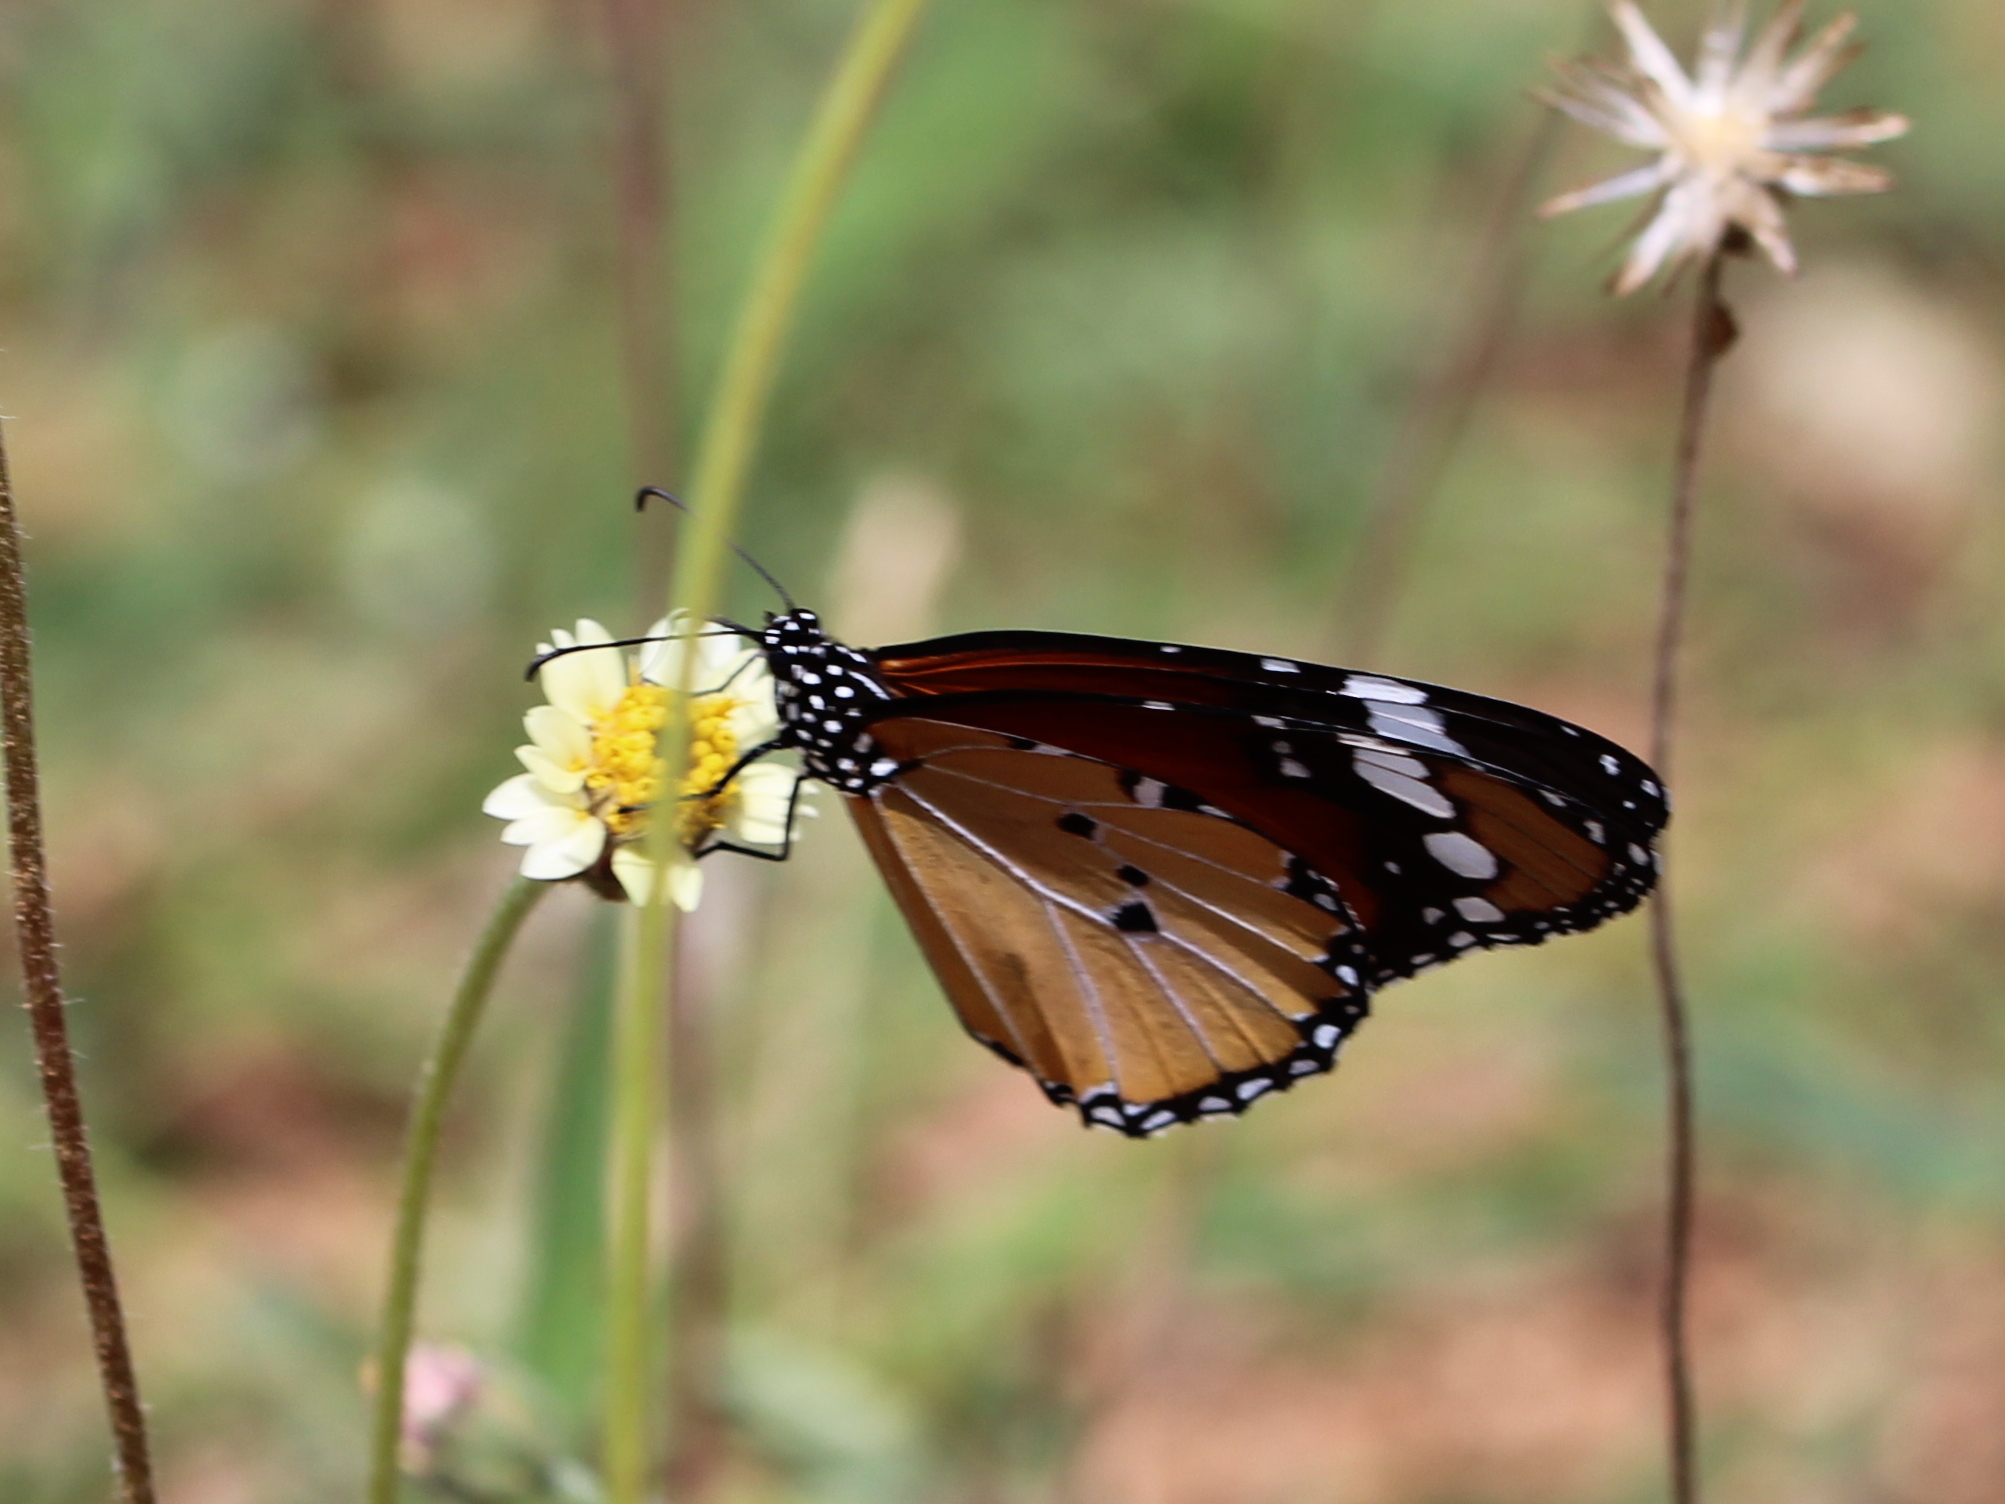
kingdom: Animalia
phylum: Arthropoda
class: Insecta
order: Lepidoptera
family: Nymphalidae
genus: Danaus
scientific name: Danaus chrysippus
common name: Plain tiger
